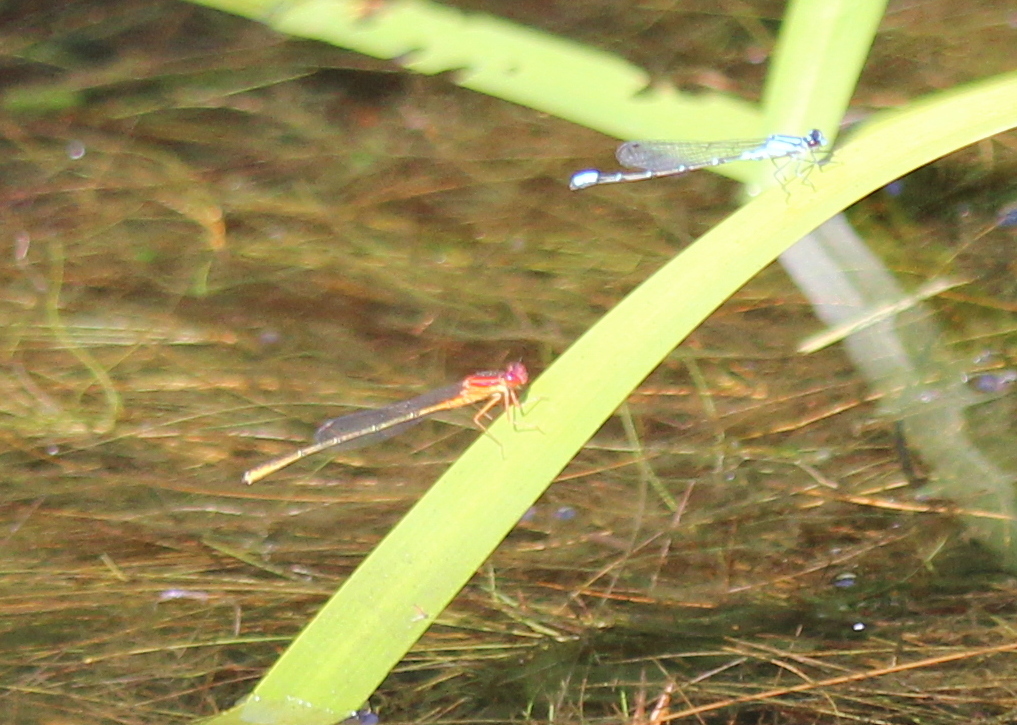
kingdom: Animalia
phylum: Arthropoda
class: Insecta
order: Odonata
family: Coenagrionidae
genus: Enallagma
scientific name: Enallagma geminatum
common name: Skimming bluet
